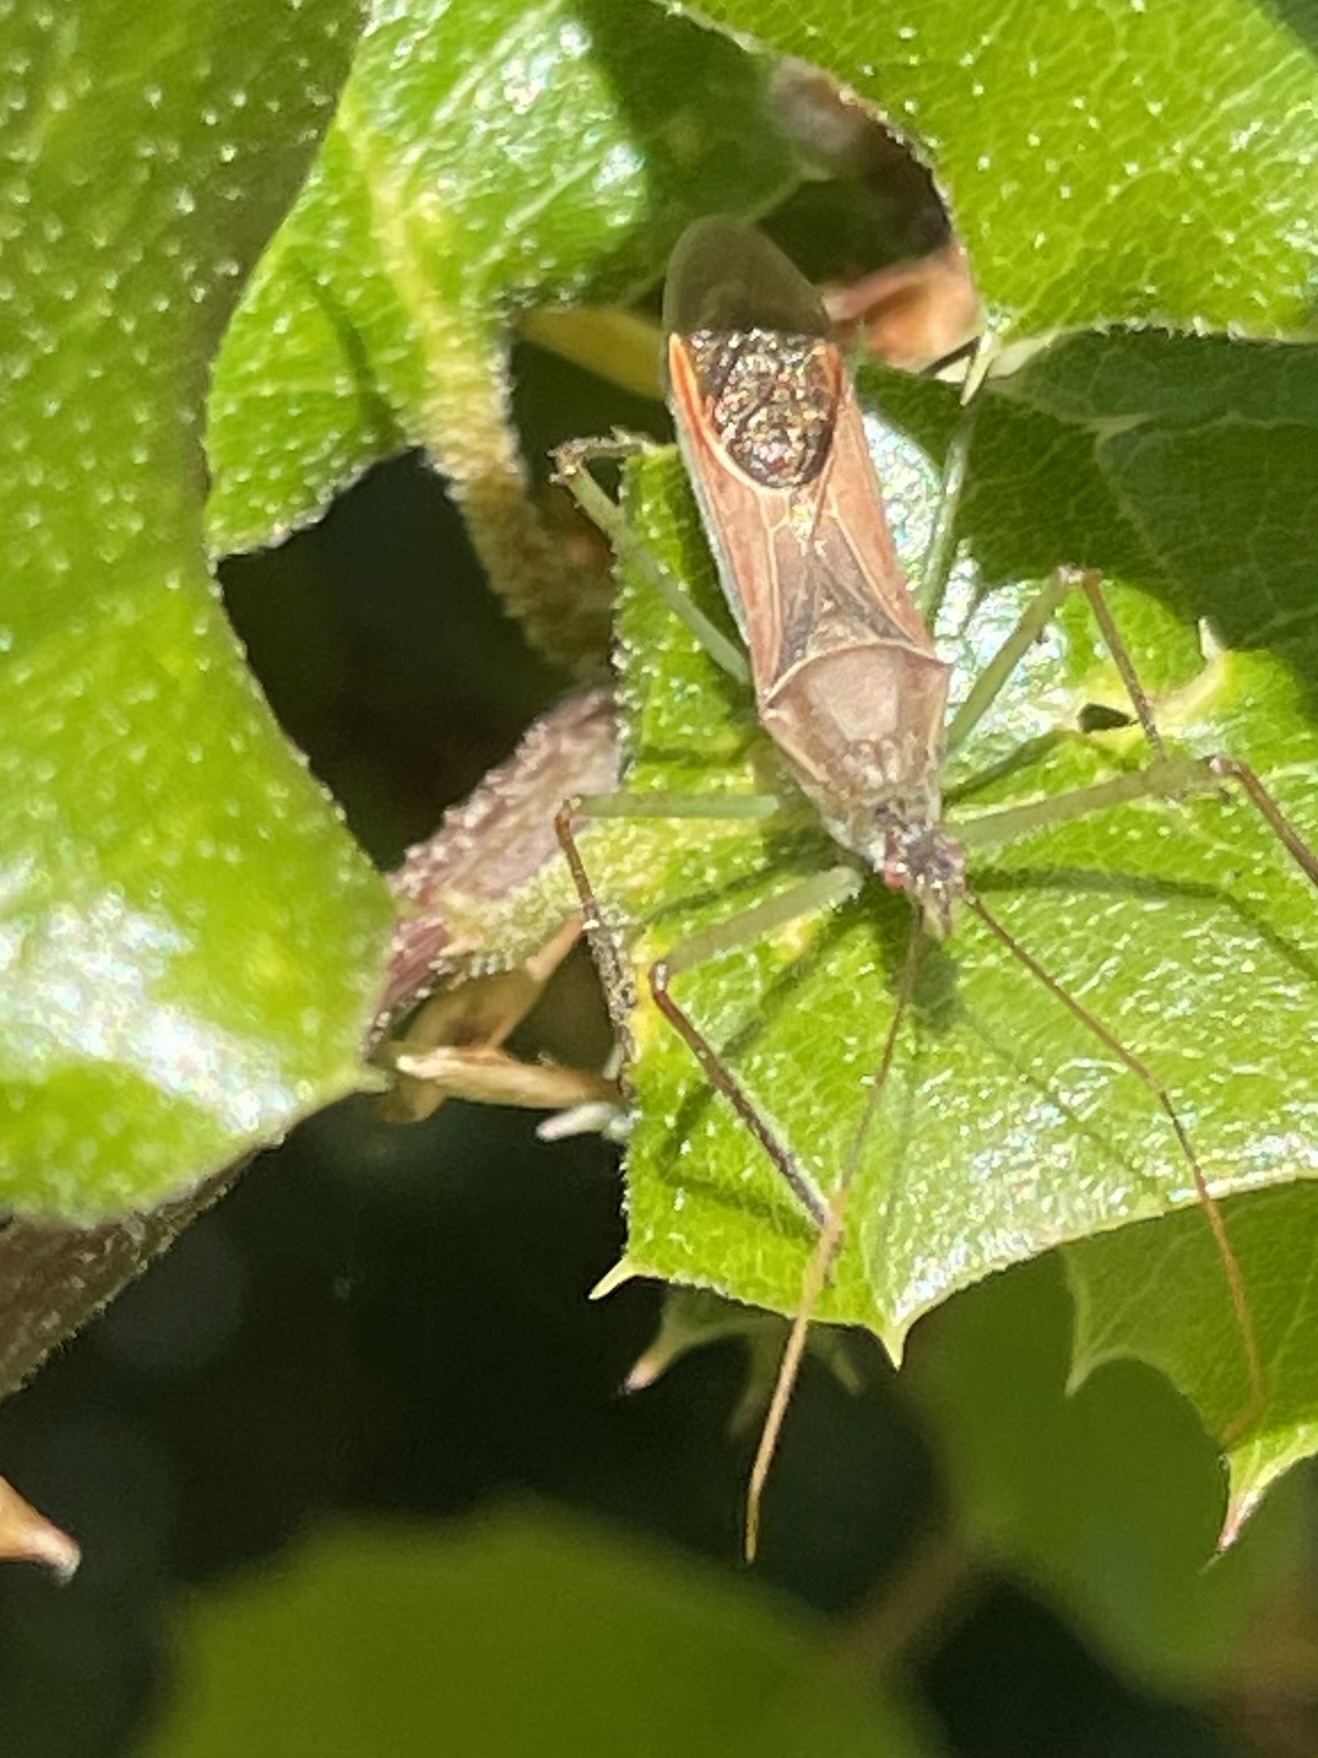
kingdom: Animalia
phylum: Arthropoda
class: Insecta
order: Hemiptera
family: Reduviidae
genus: Zelus
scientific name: Zelus renardii
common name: Assassin bug
